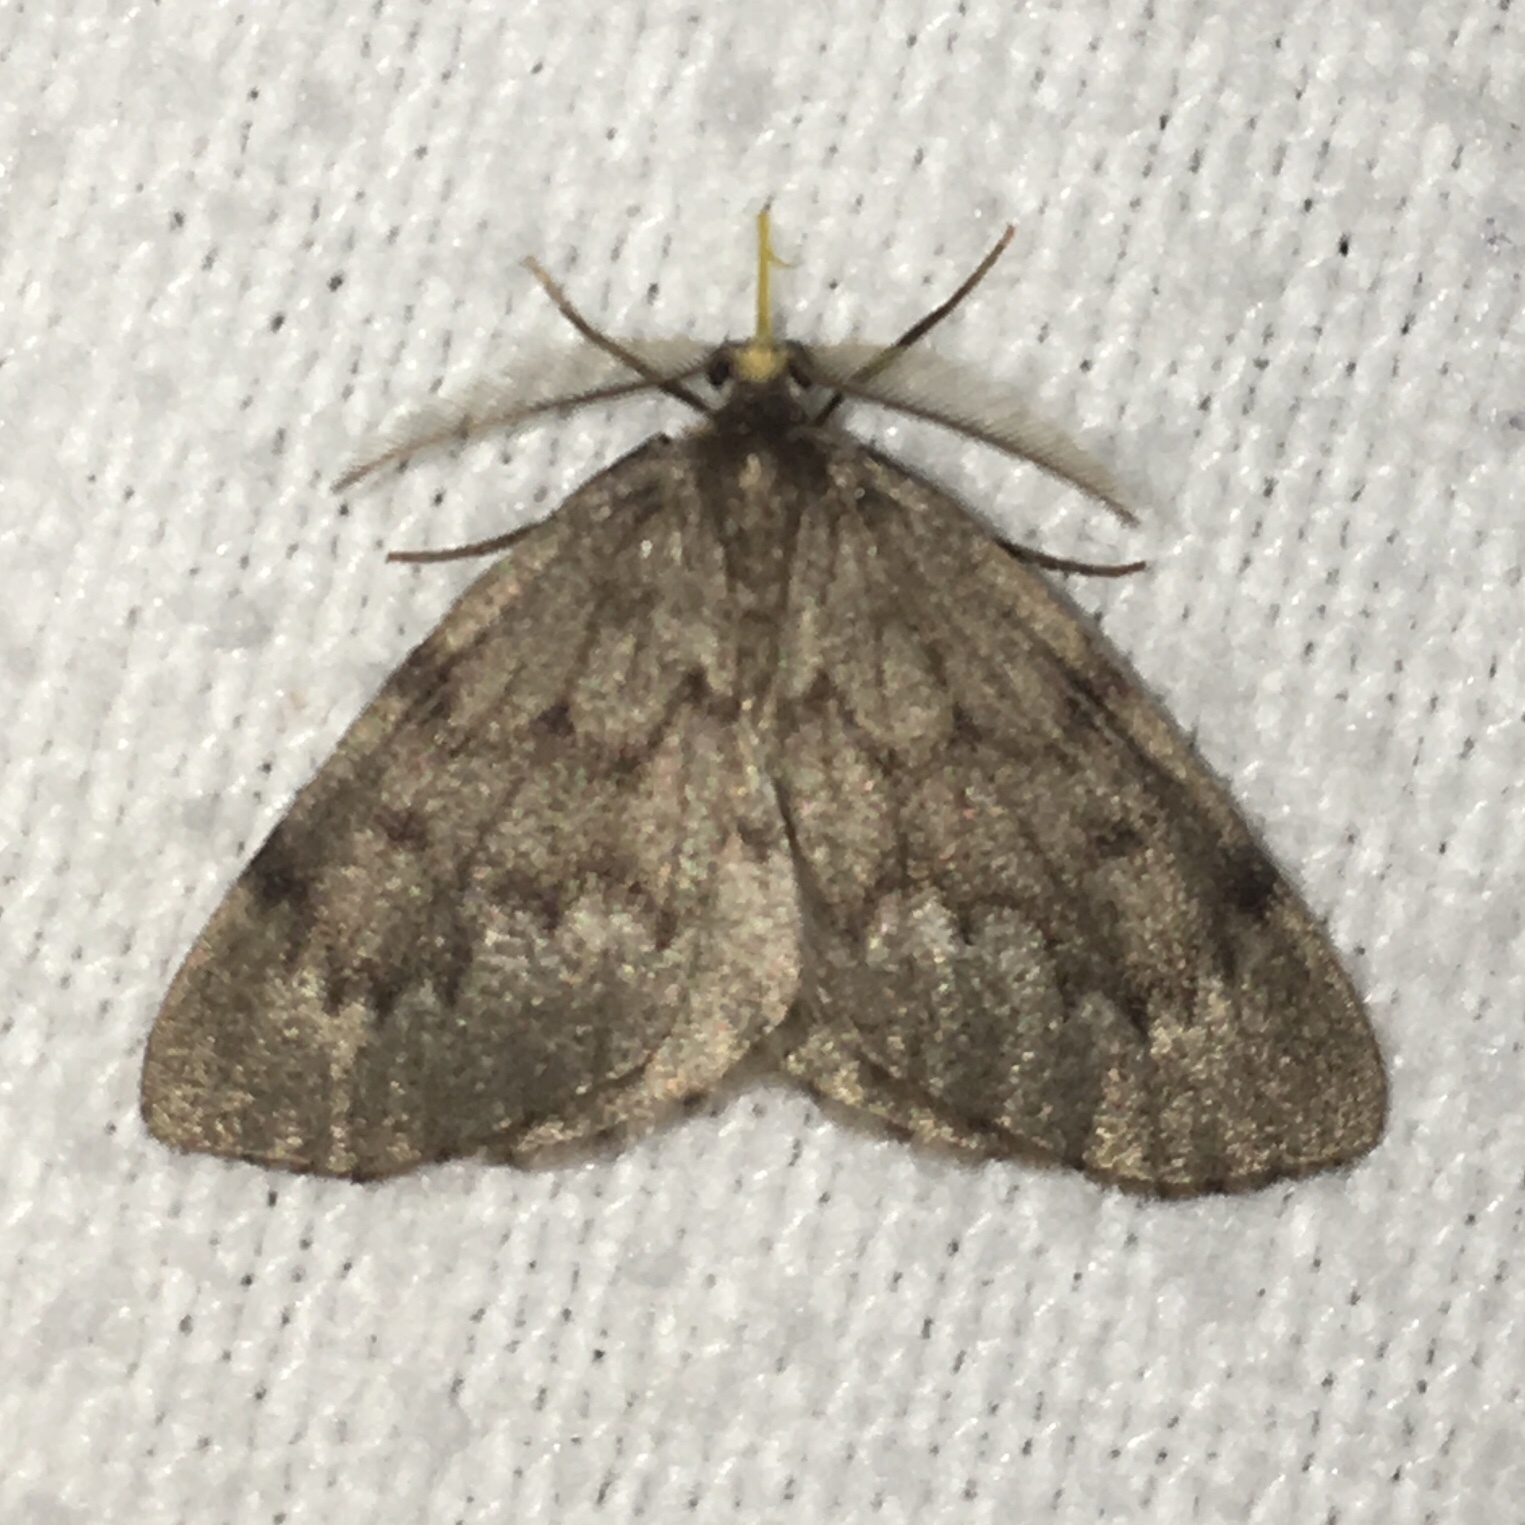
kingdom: Animalia
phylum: Arthropoda
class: Insecta
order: Lepidoptera
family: Geometridae
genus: Nepytia
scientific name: Nepytia canosaria
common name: False hemlock looper
